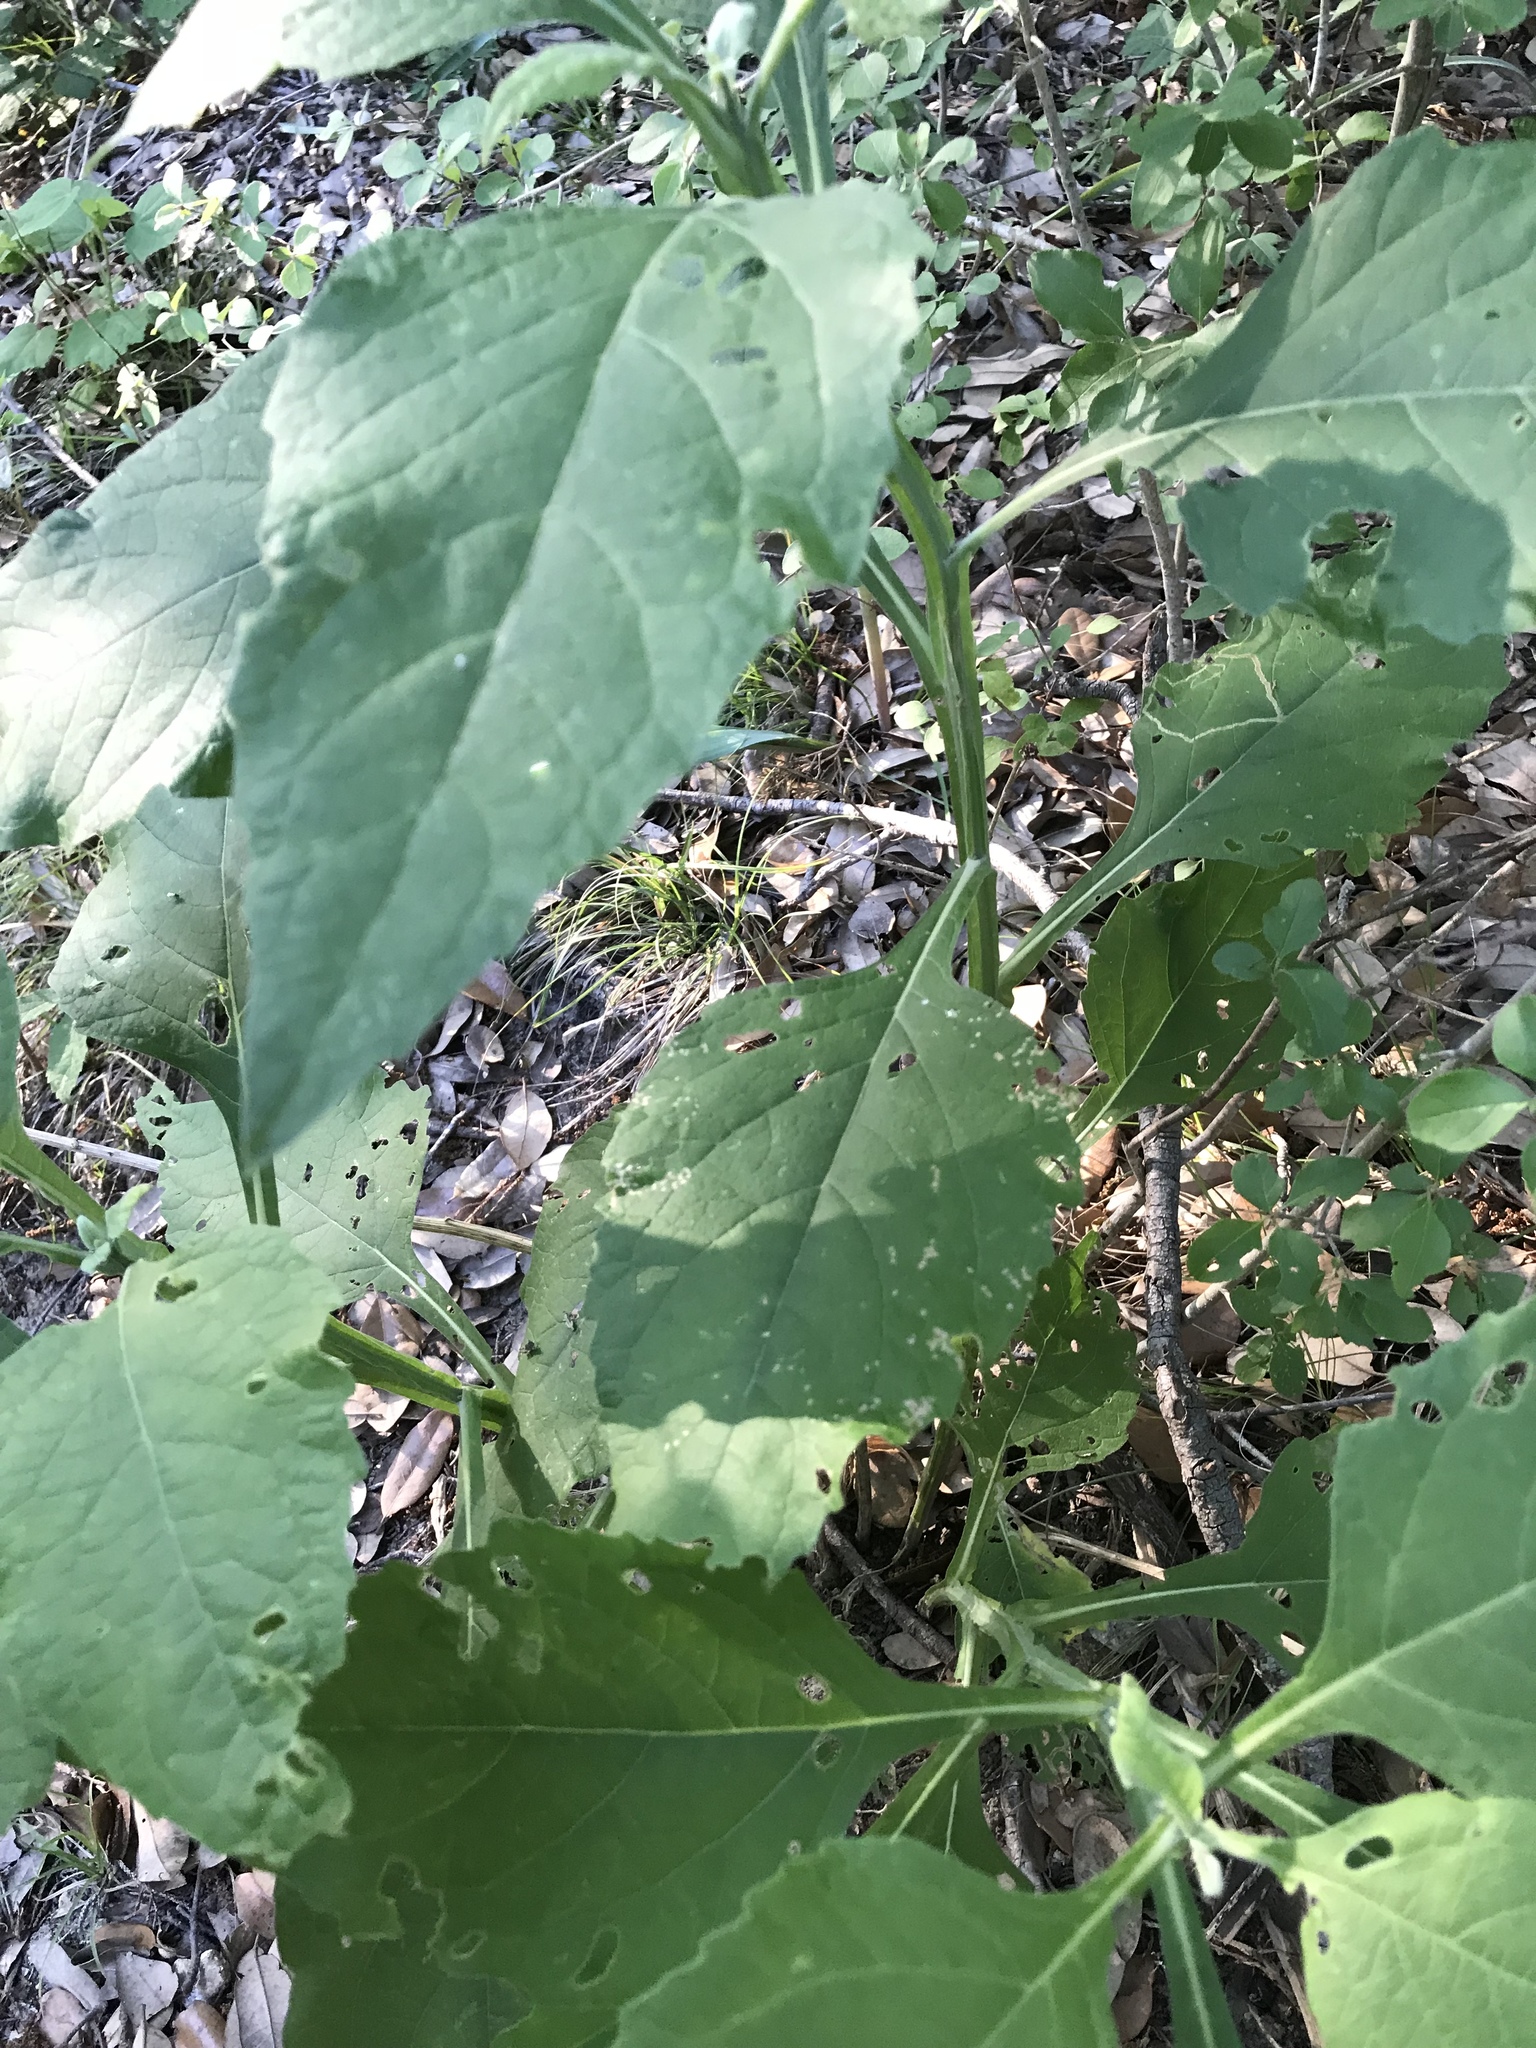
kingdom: Plantae
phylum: Tracheophyta
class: Magnoliopsida
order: Asterales
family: Asteraceae
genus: Verbesina
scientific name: Verbesina virginica
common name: Frostweed
